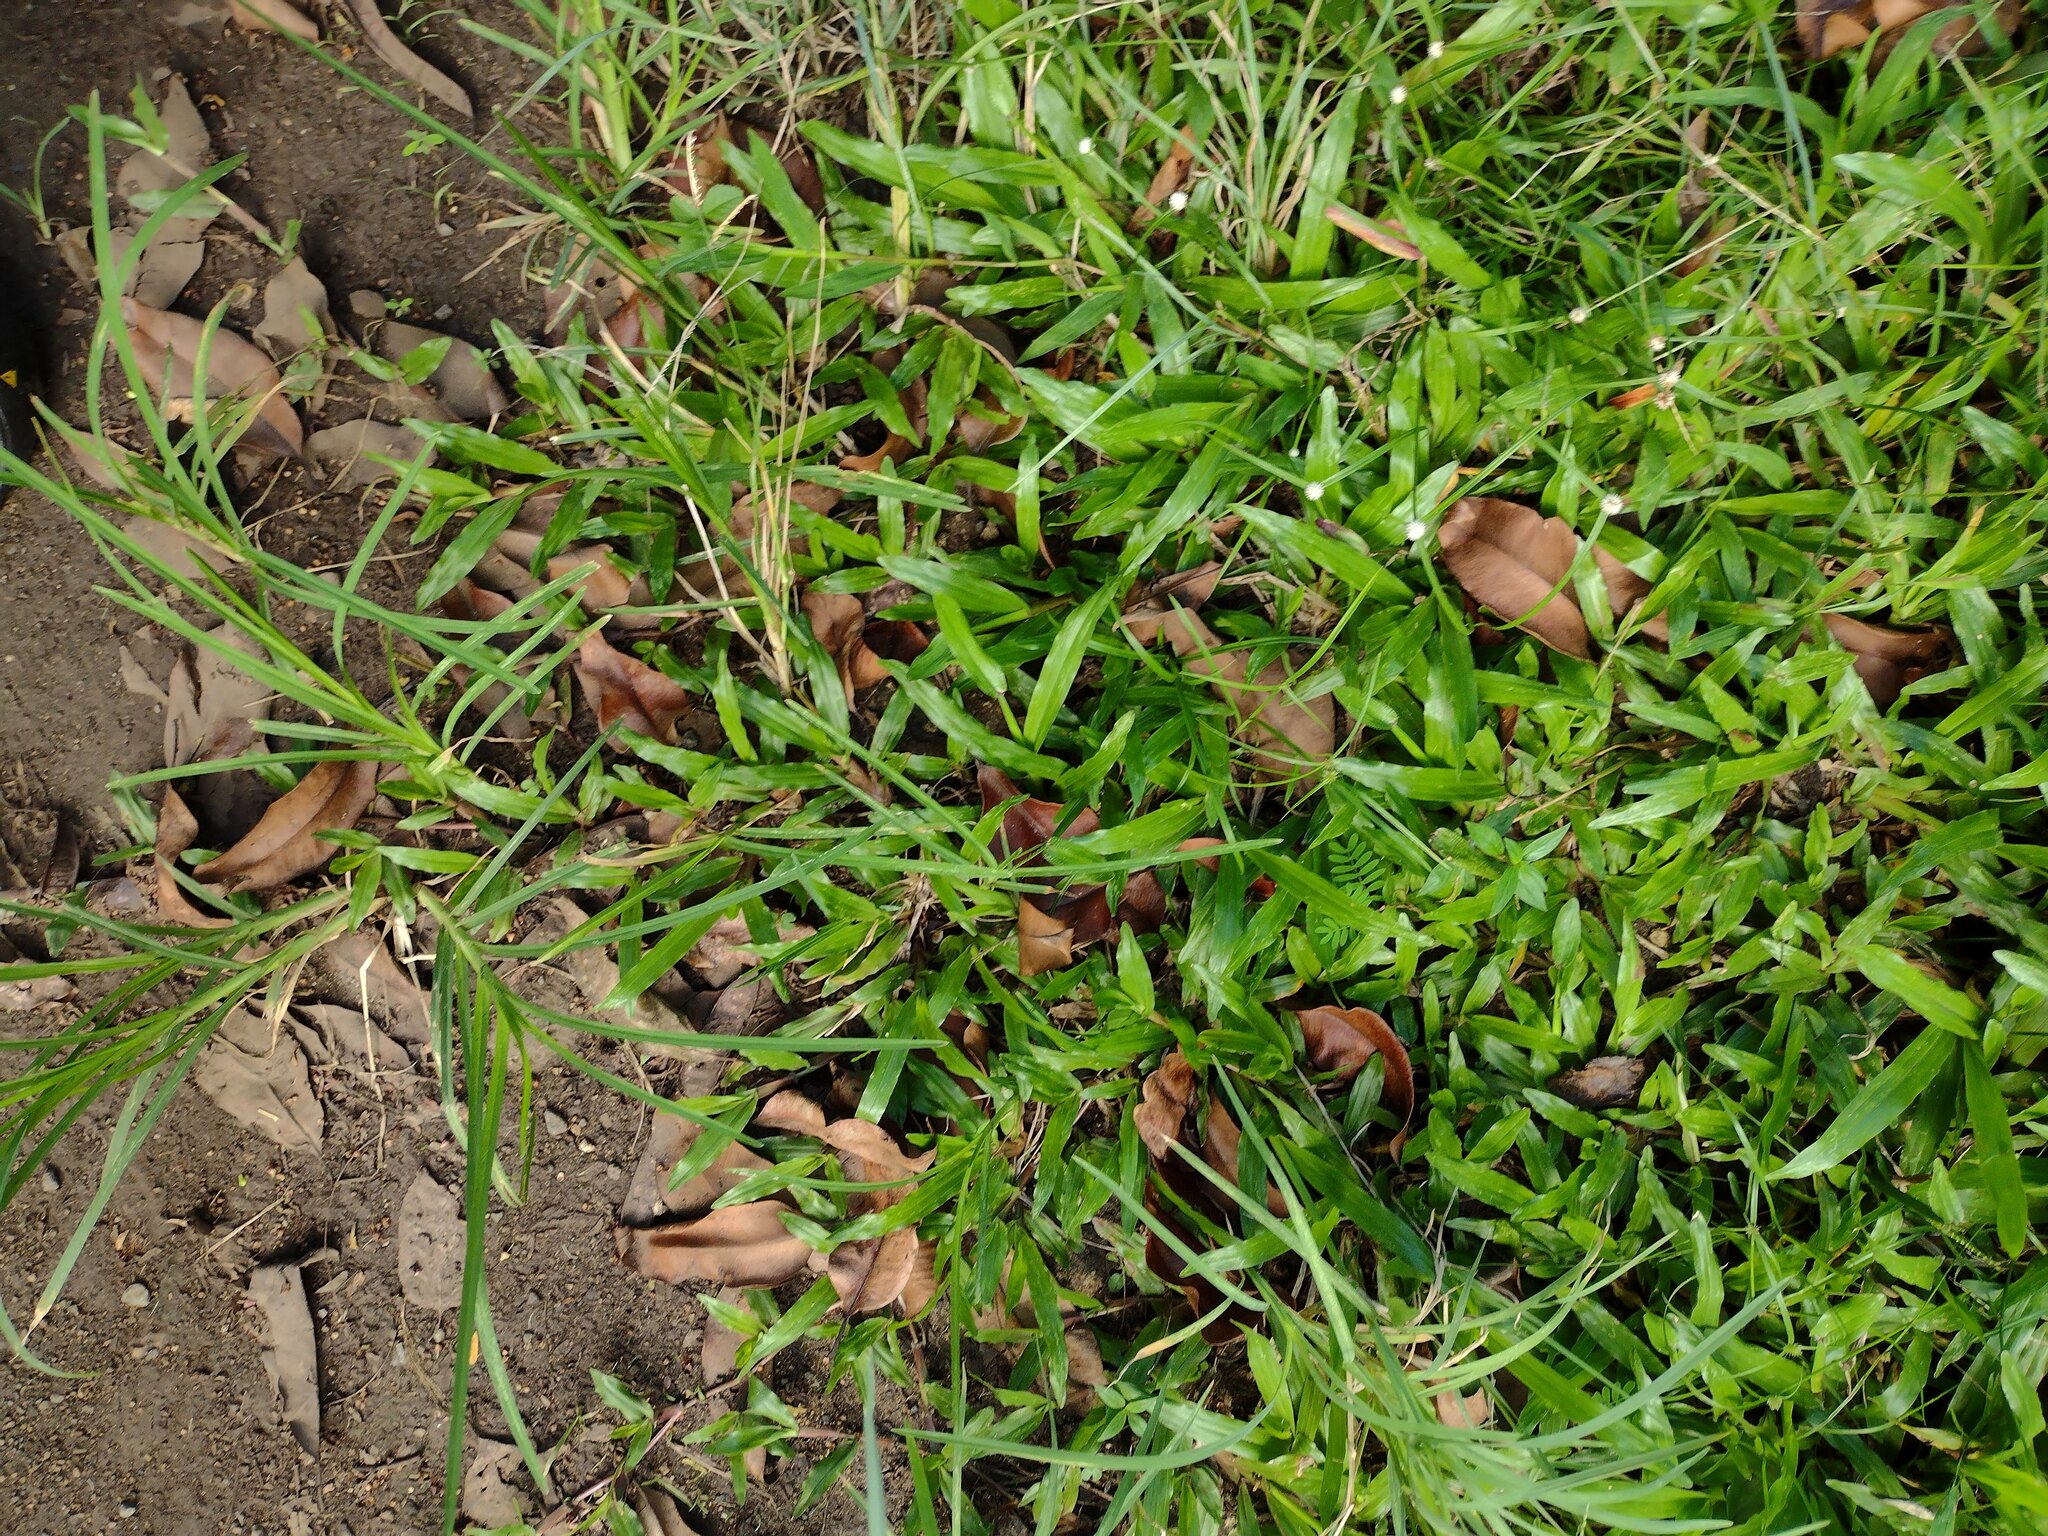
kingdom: Plantae
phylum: Tracheophyta
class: Liliopsida
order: Poales
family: Poaceae
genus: Axonopus
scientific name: Axonopus compressus
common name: American carpet grass
